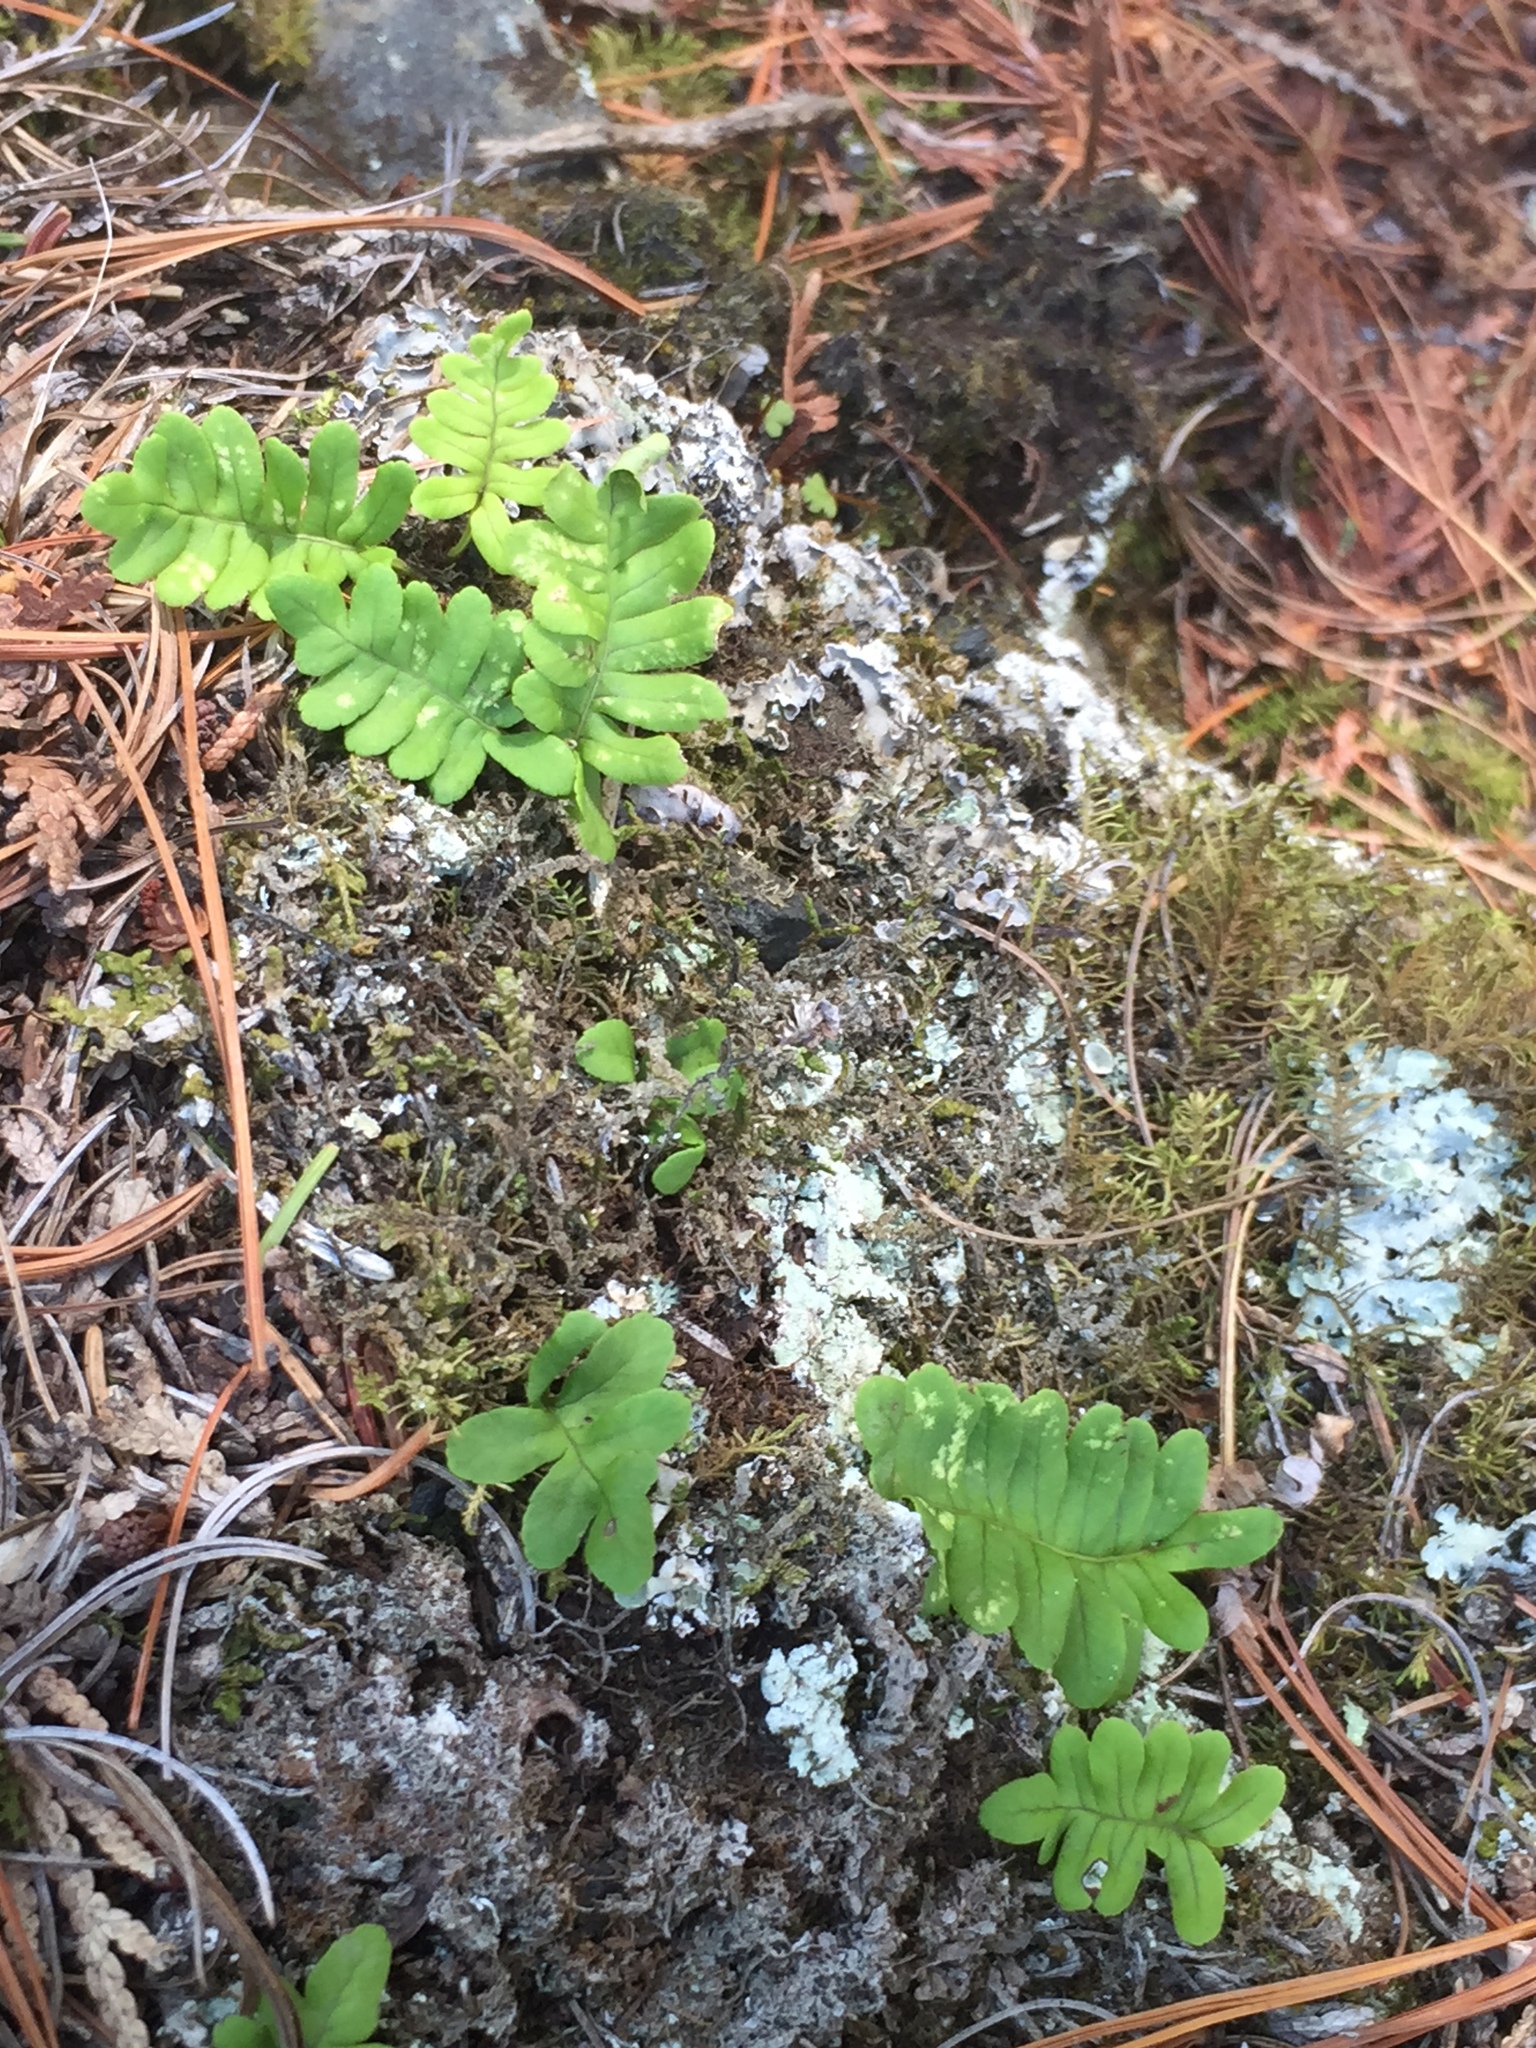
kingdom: Plantae
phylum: Tracheophyta
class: Polypodiopsida
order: Polypodiales
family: Polypodiaceae
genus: Polypodium
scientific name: Polypodium virginianum
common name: American wall fern
